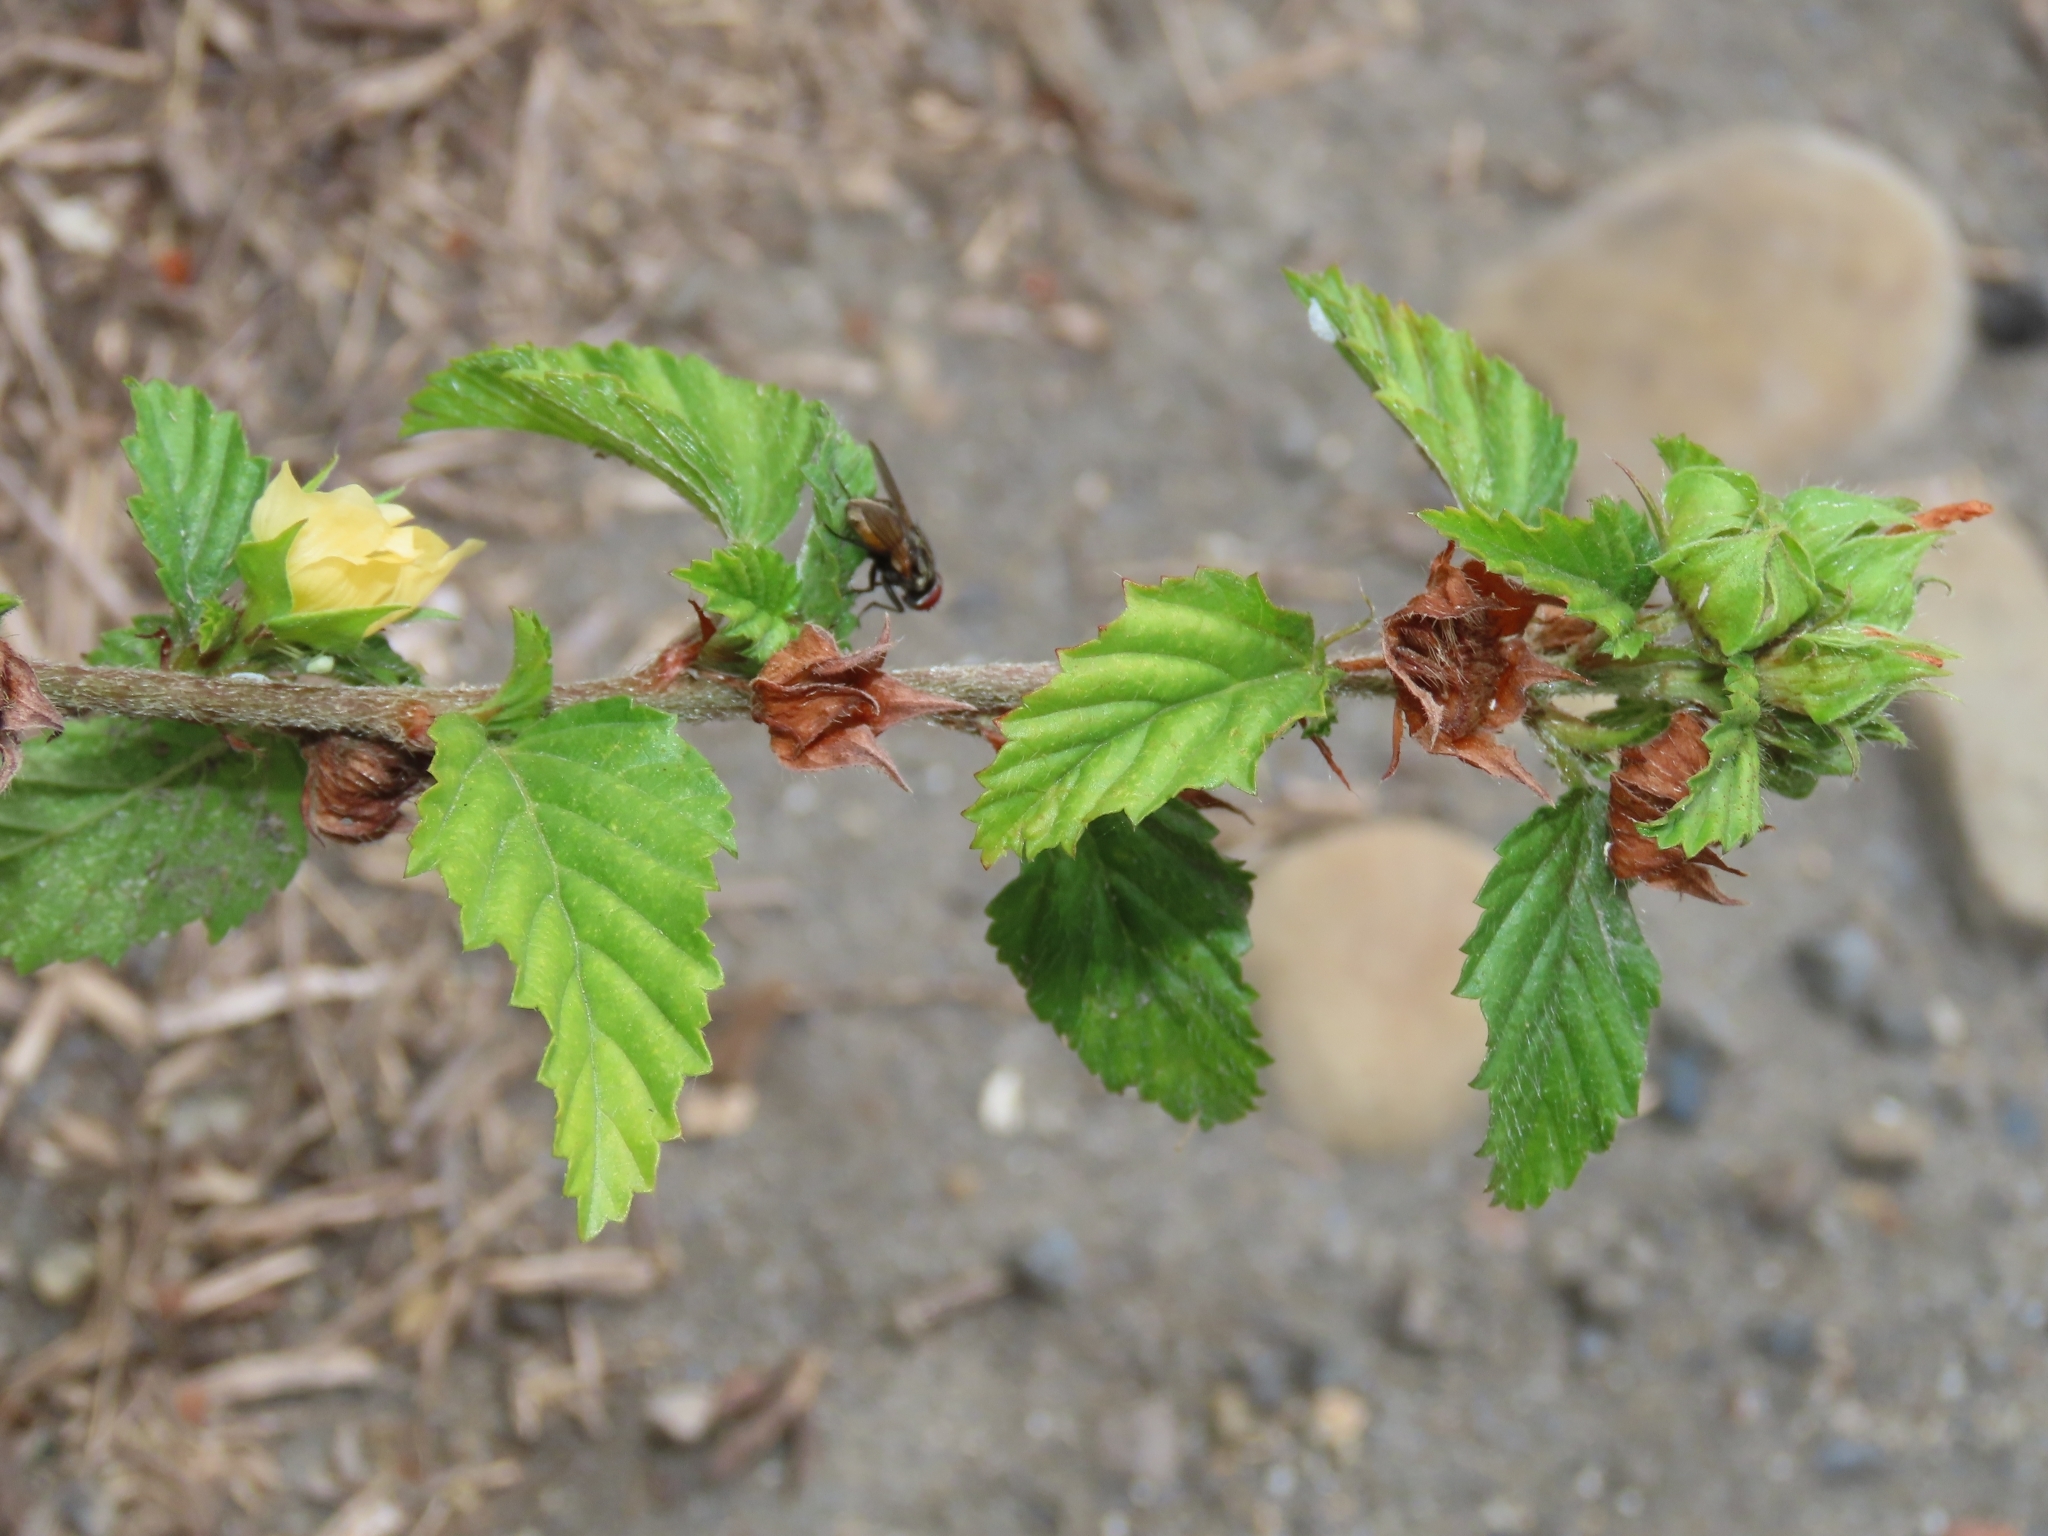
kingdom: Plantae
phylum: Tracheophyta
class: Magnoliopsida
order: Malvales
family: Malvaceae
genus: Malvastrum
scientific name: Malvastrum coromandelianum
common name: Threelobe false mallow
